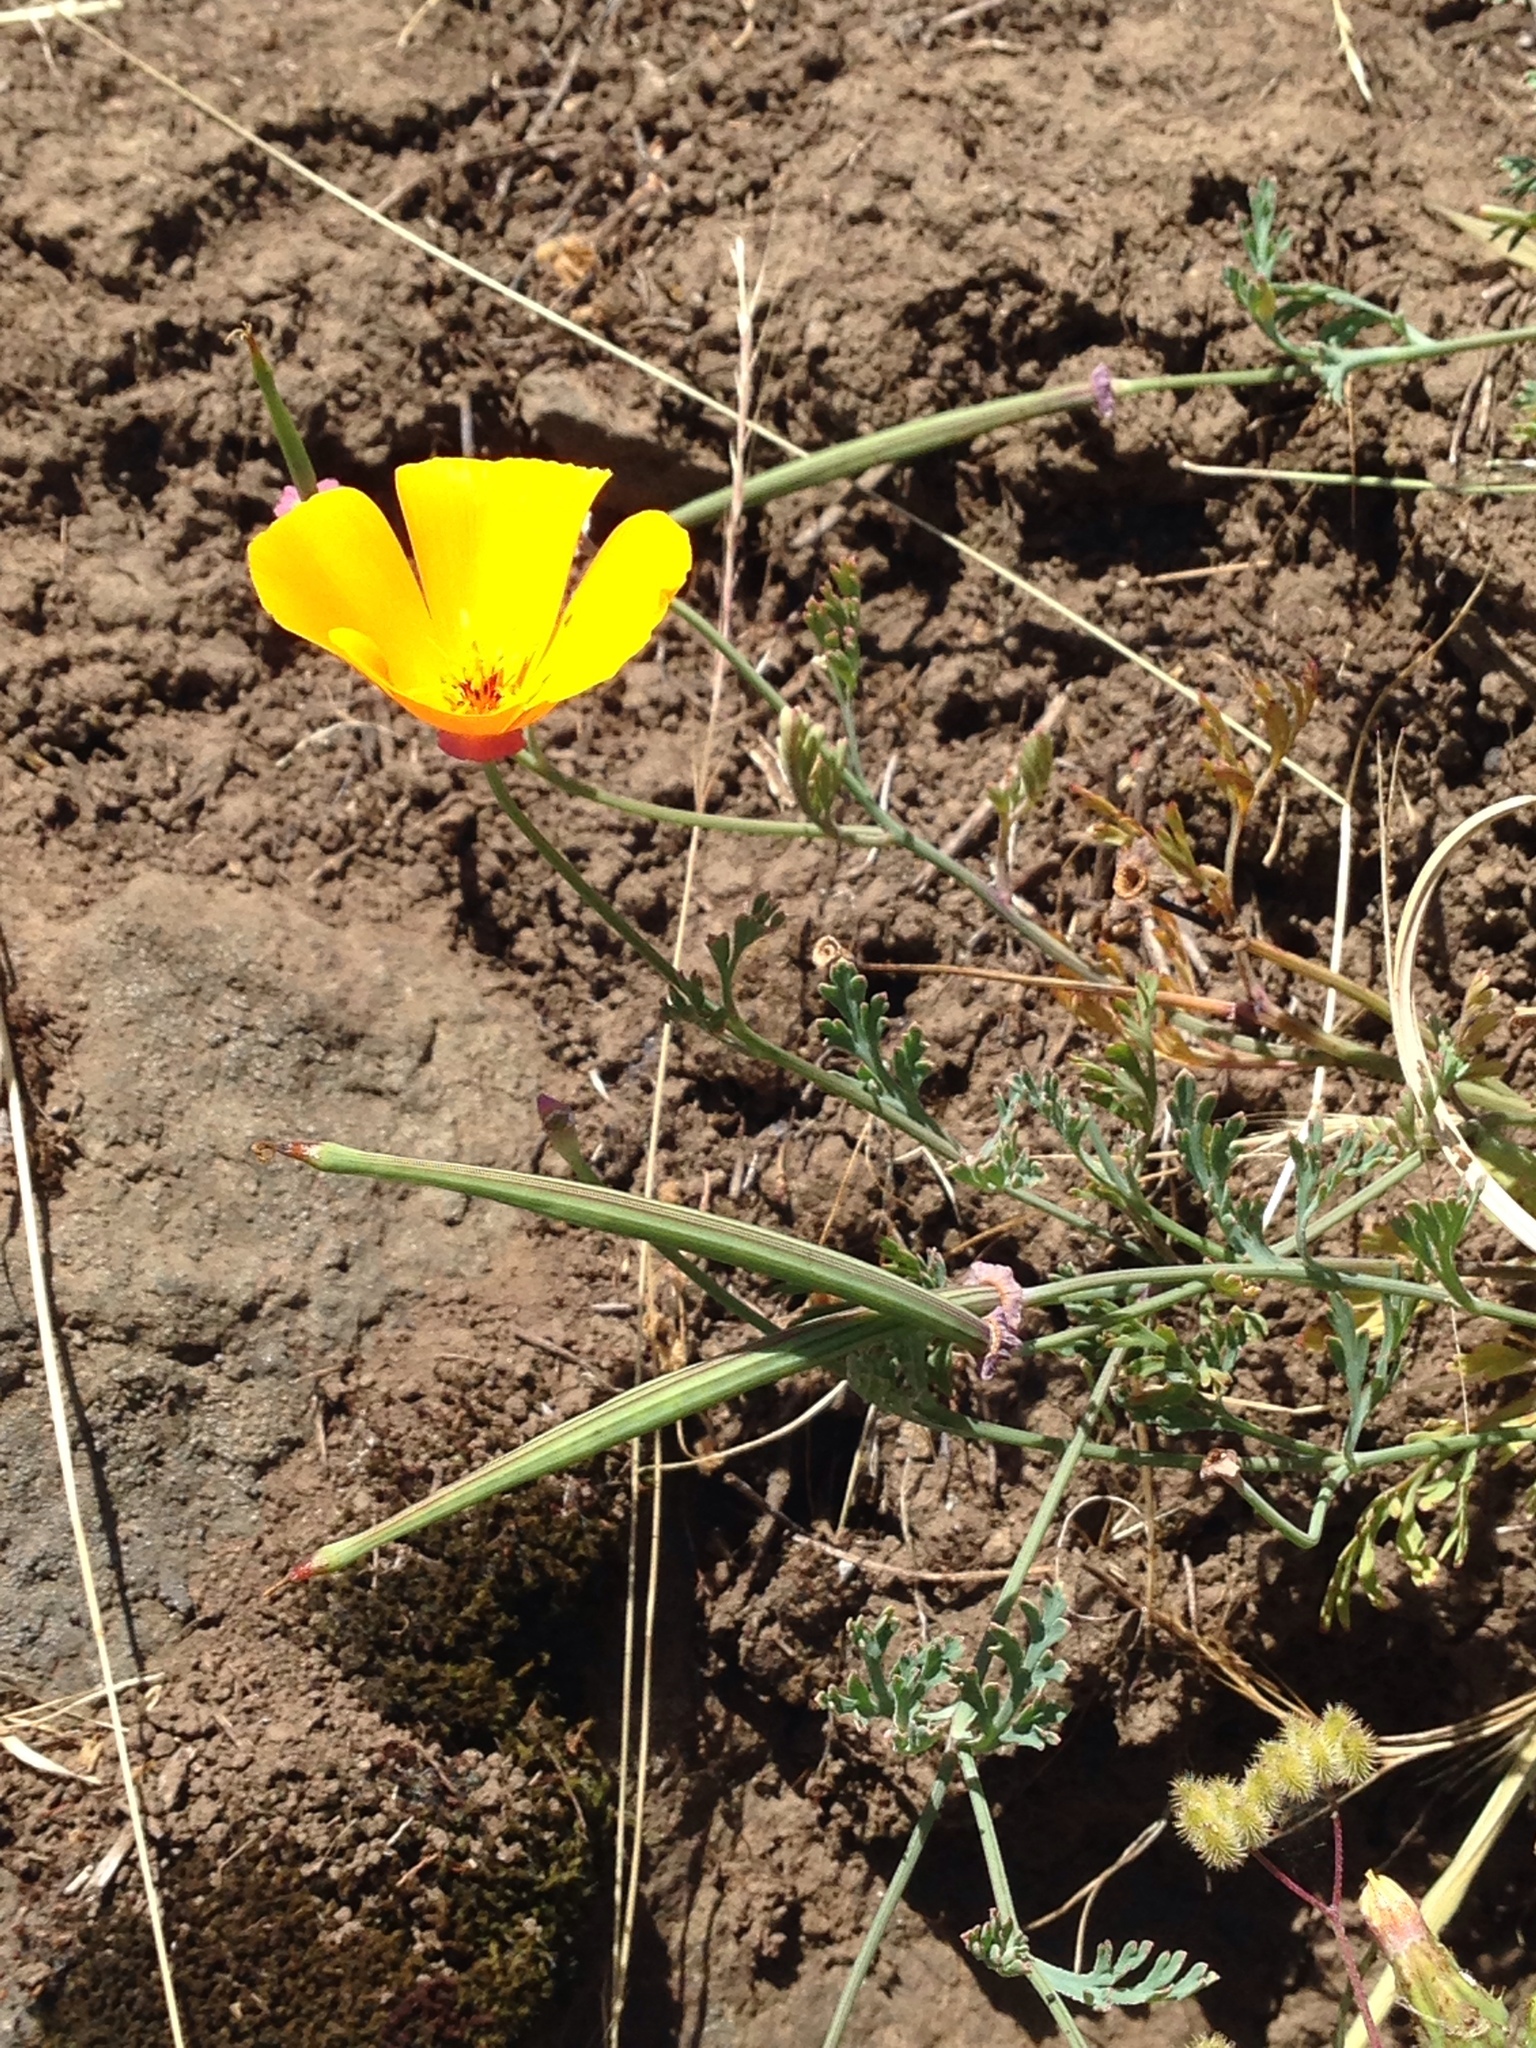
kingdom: Plantae
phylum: Tracheophyta
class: Magnoliopsida
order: Ranunculales
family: Papaveraceae
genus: Eschscholzia
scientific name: Eschscholzia californica
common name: California poppy
